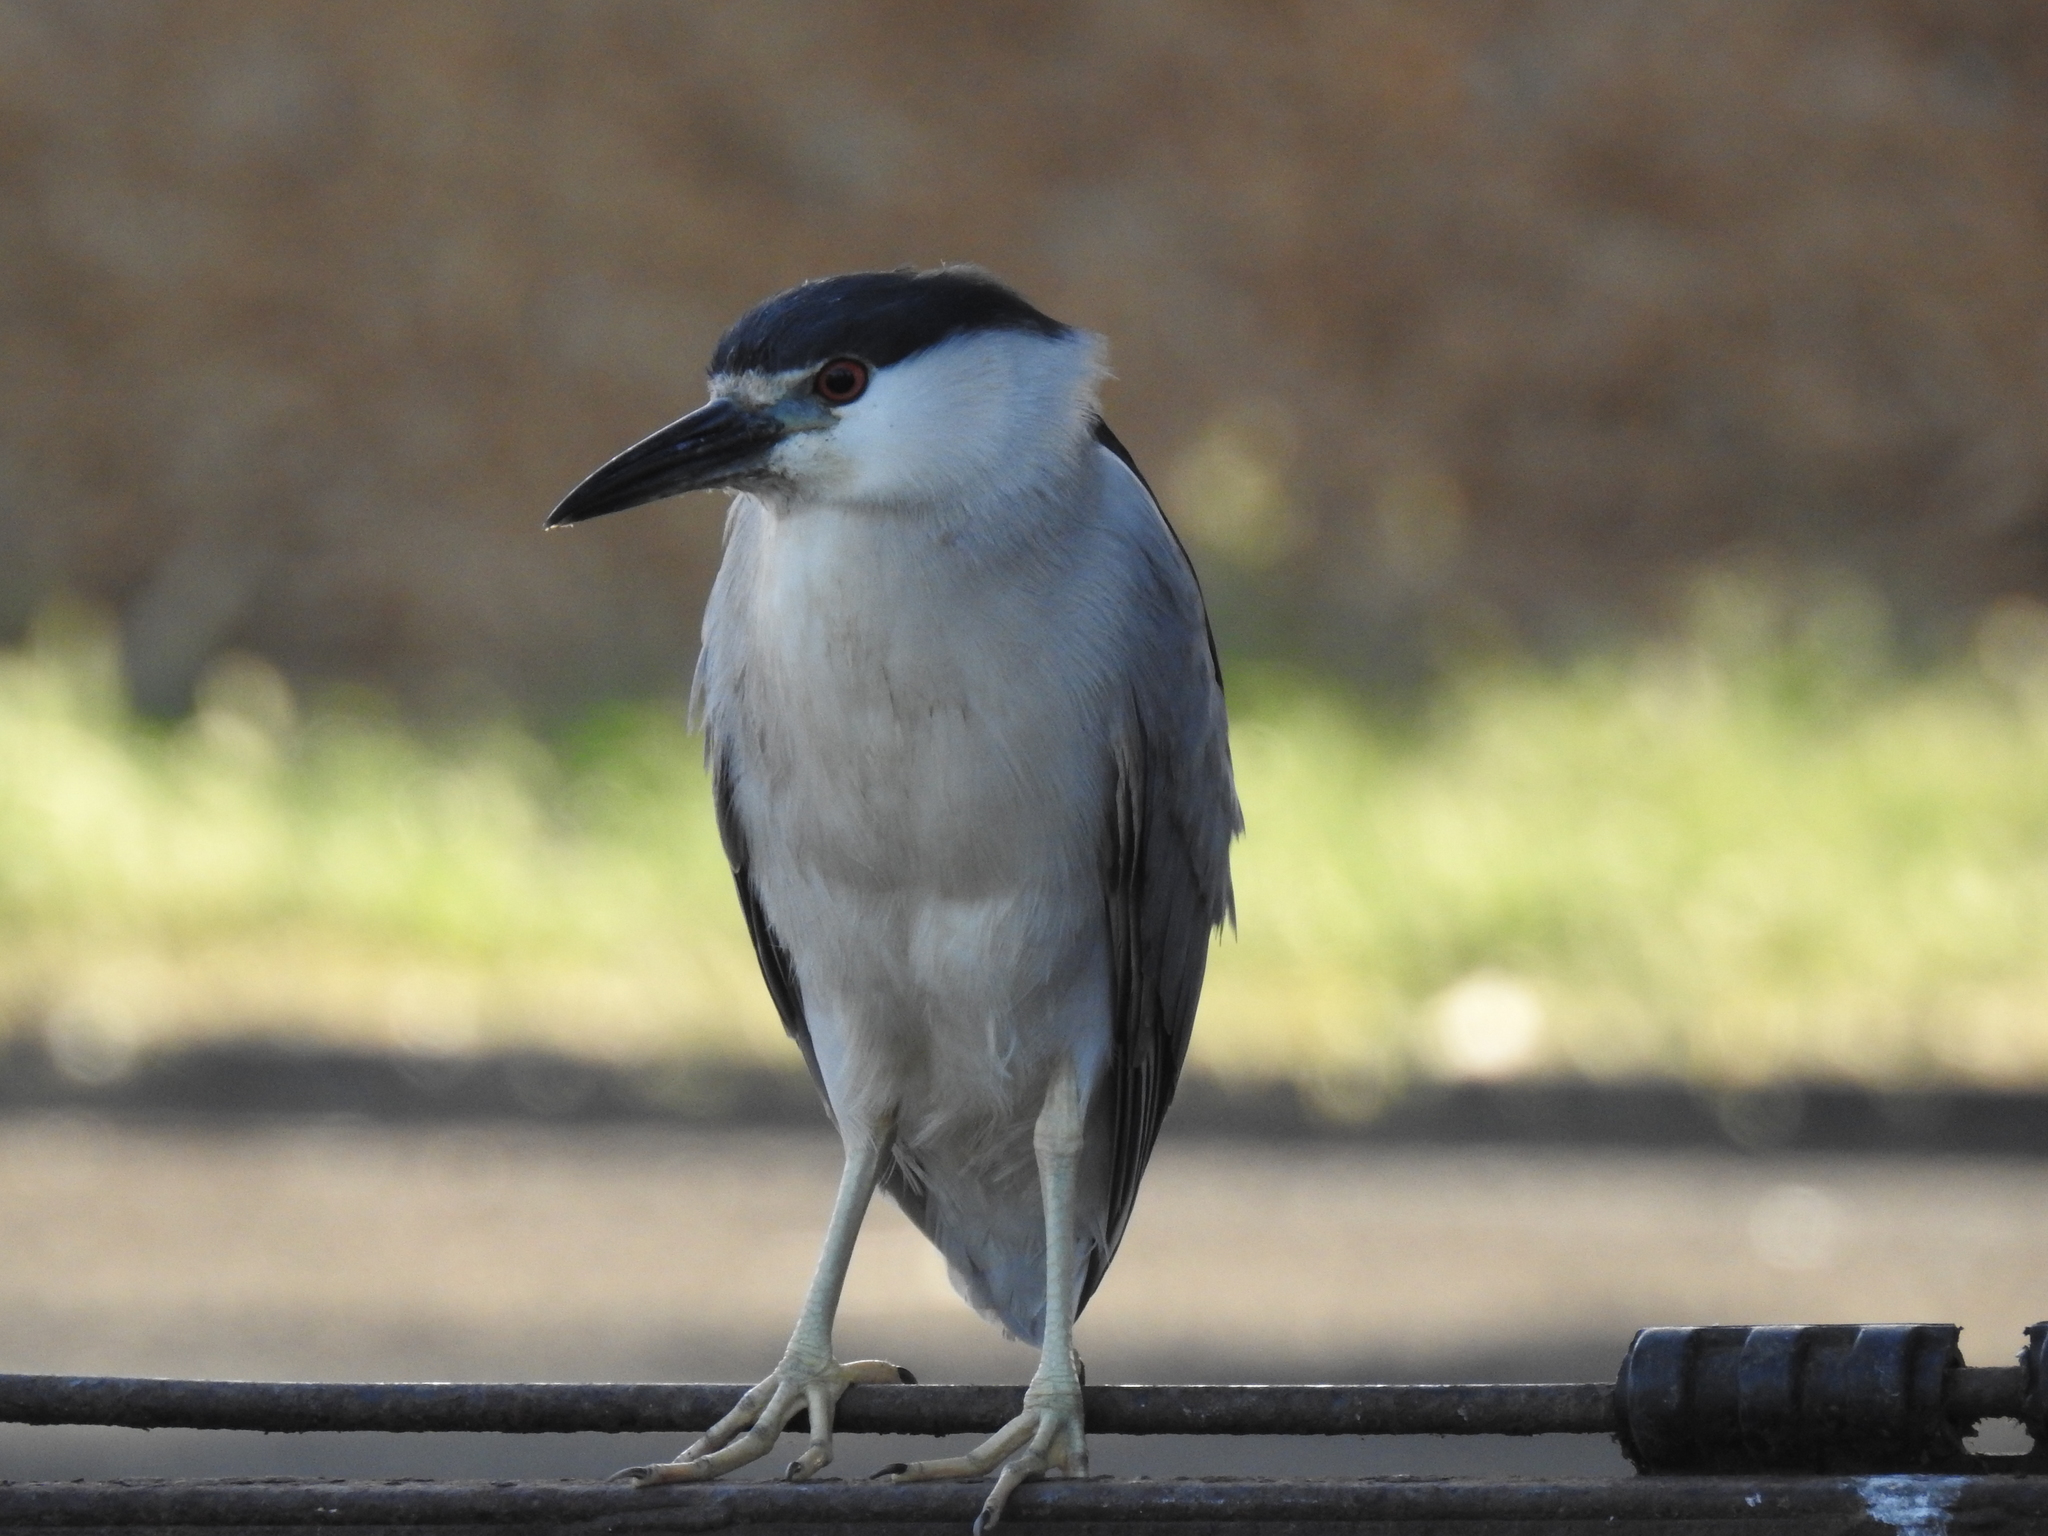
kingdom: Animalia
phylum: Chordata
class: Aves
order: Pelecaniformes
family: Ardeidae
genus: Nycticorax
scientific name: Nycticorax nycticorax
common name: Black-crowned night heron
